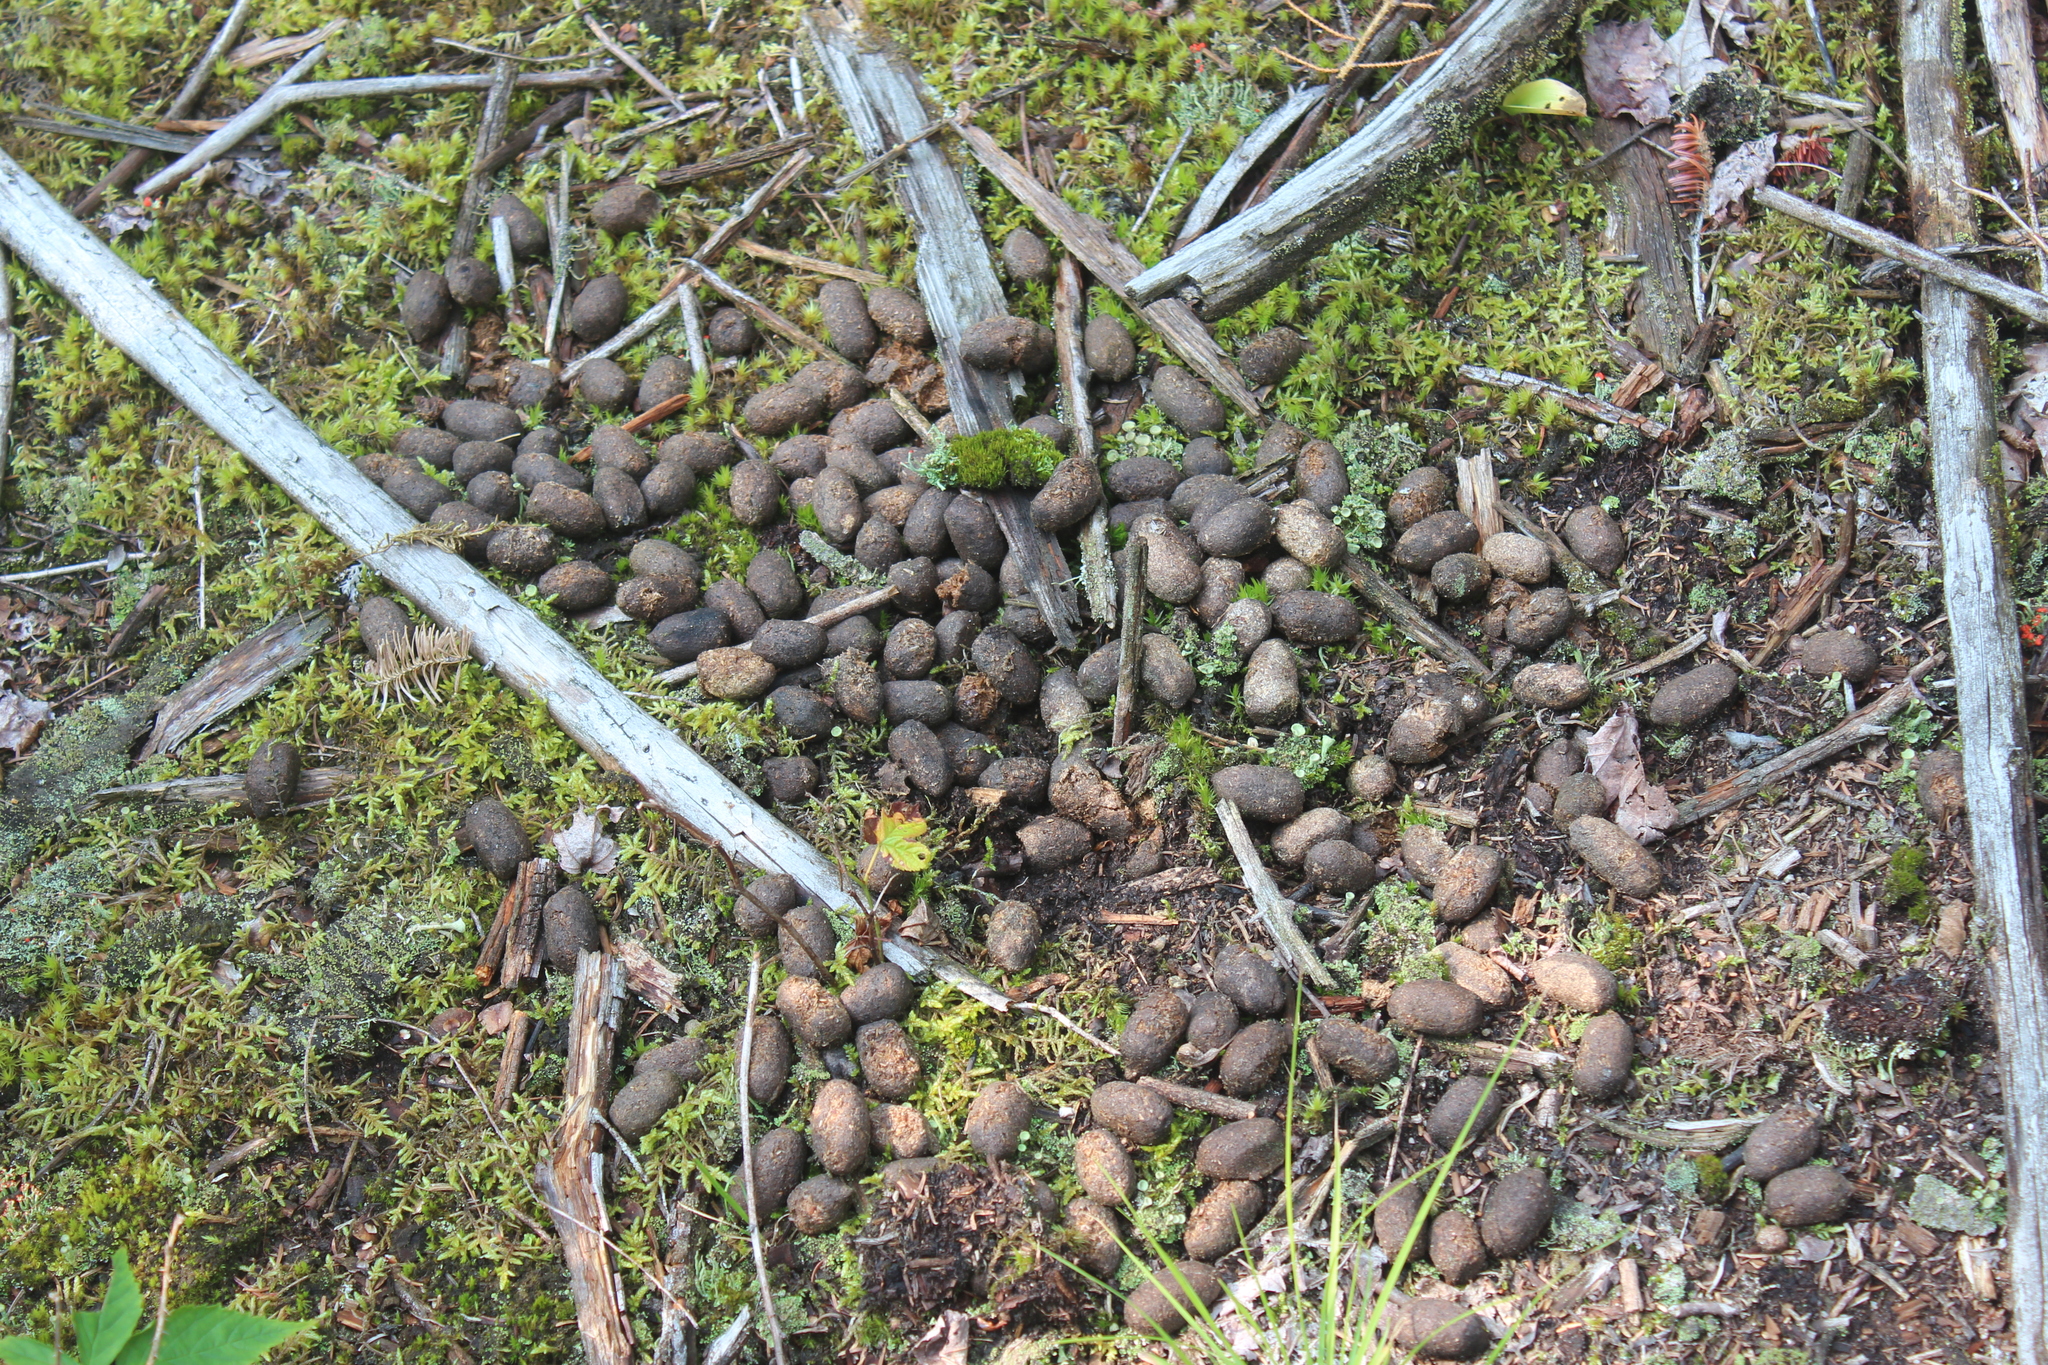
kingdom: Animalia
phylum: Chordata
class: Mammalia
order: Artiodactyla
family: Cervidae
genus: Alces
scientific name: Alces alces
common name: Moose
